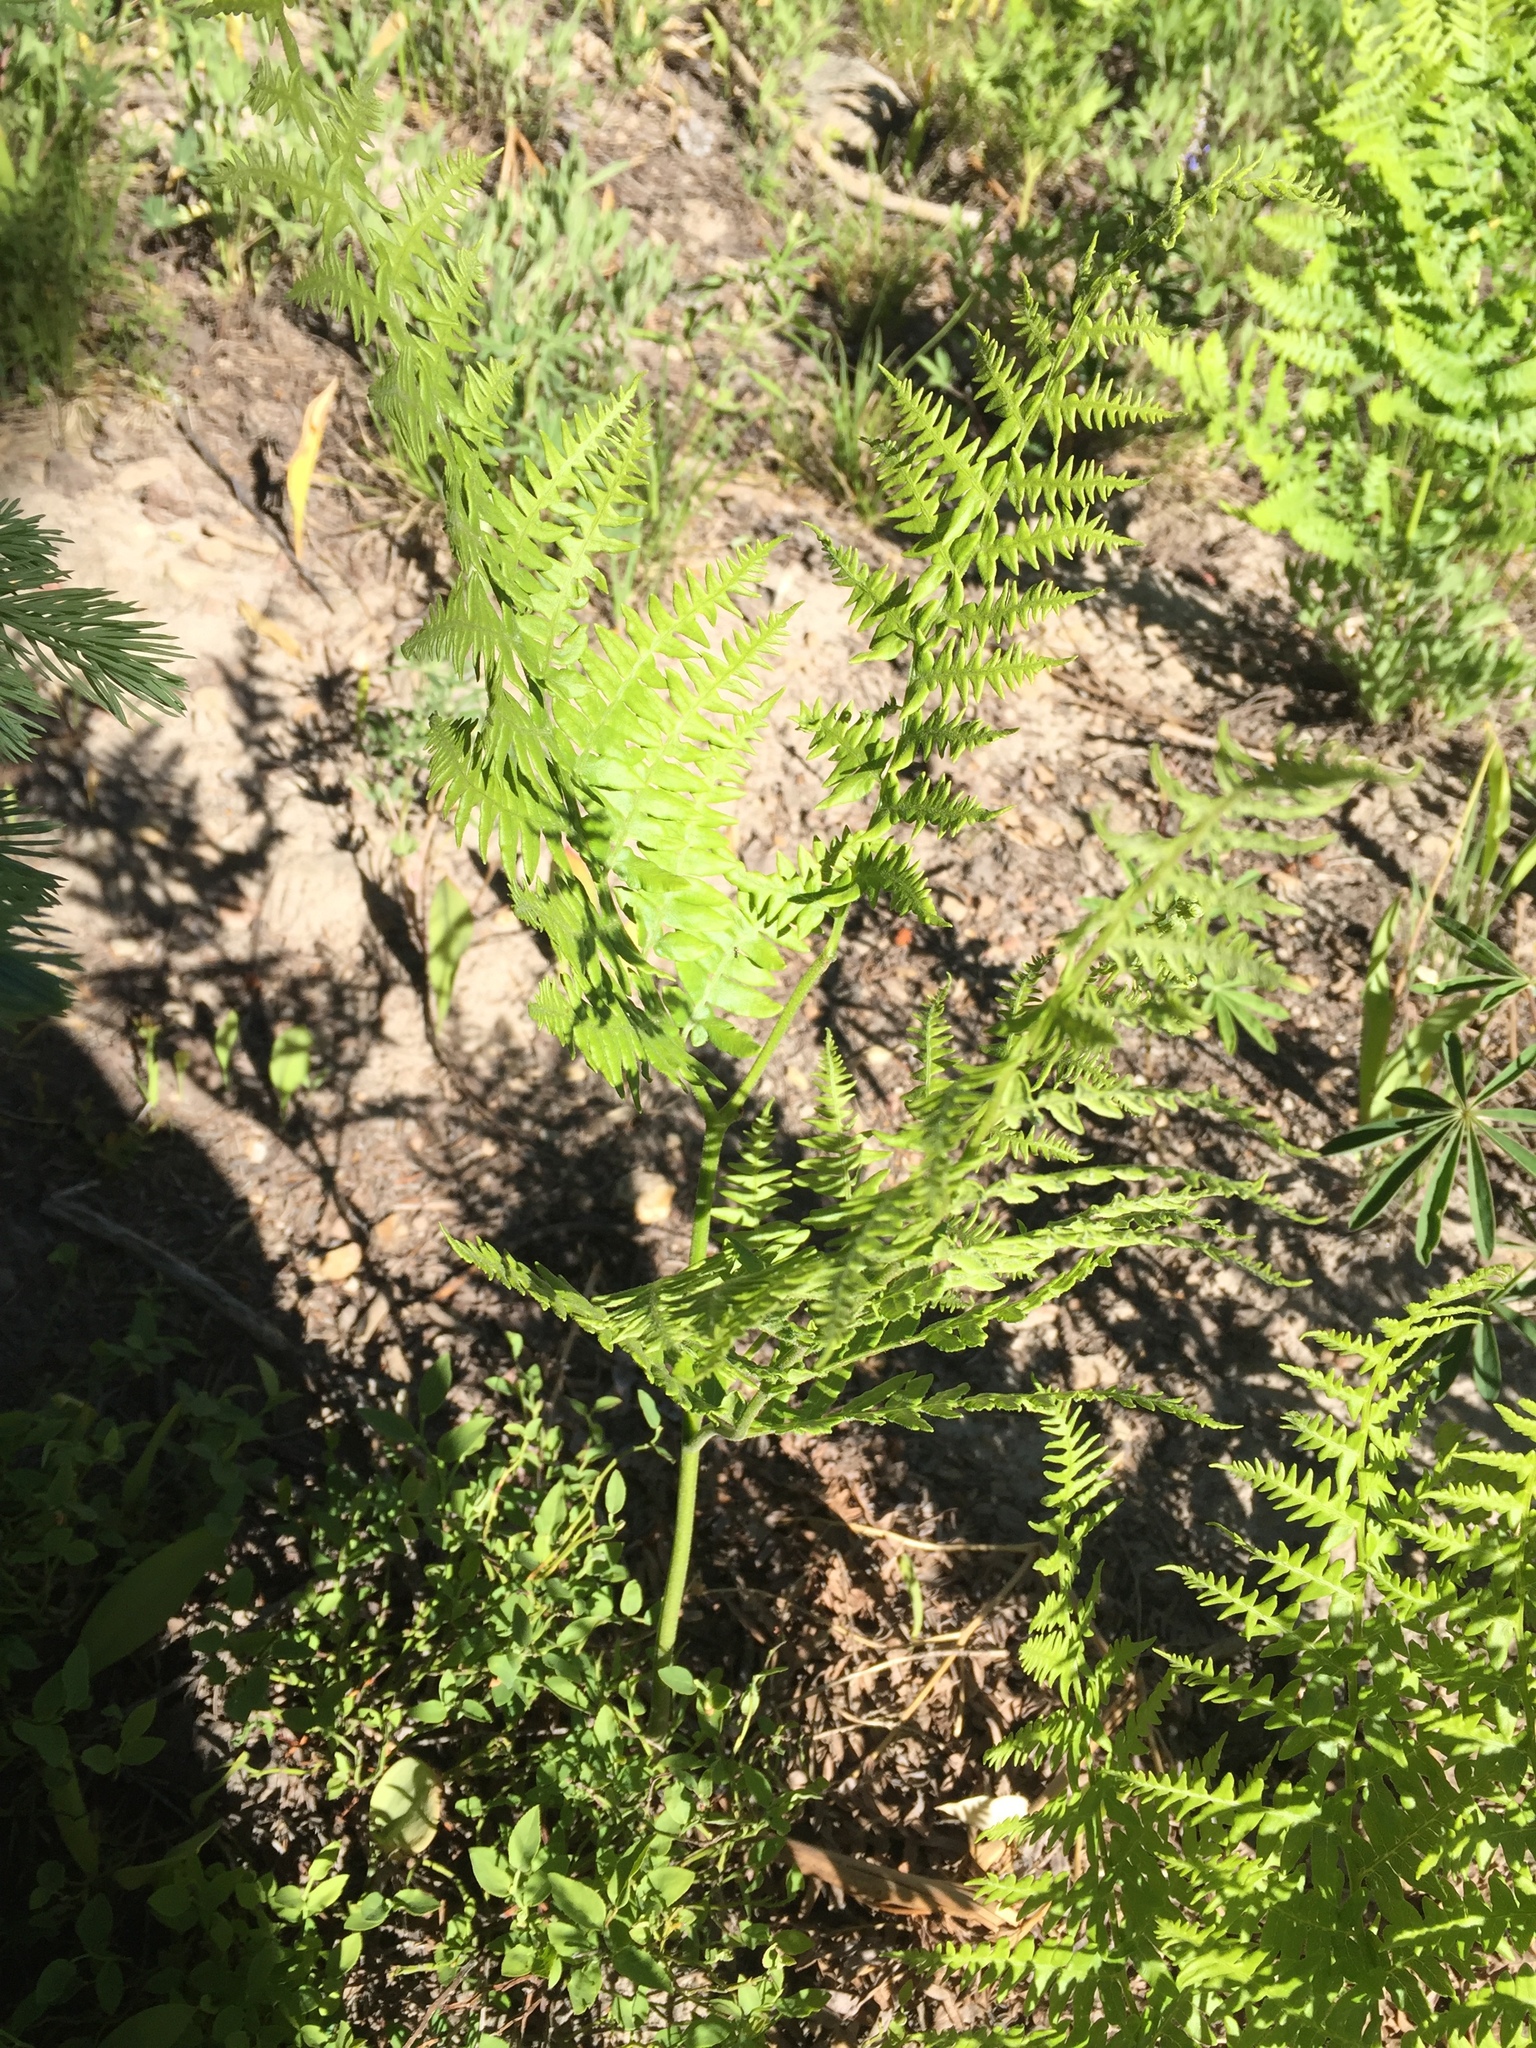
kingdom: Plantae
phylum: Tracheophyta
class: Polypodiopsida
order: Polypodiales
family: Dennstaedtiaceae
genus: Pteridium
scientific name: Pteridium aquilinum
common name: Bracken
